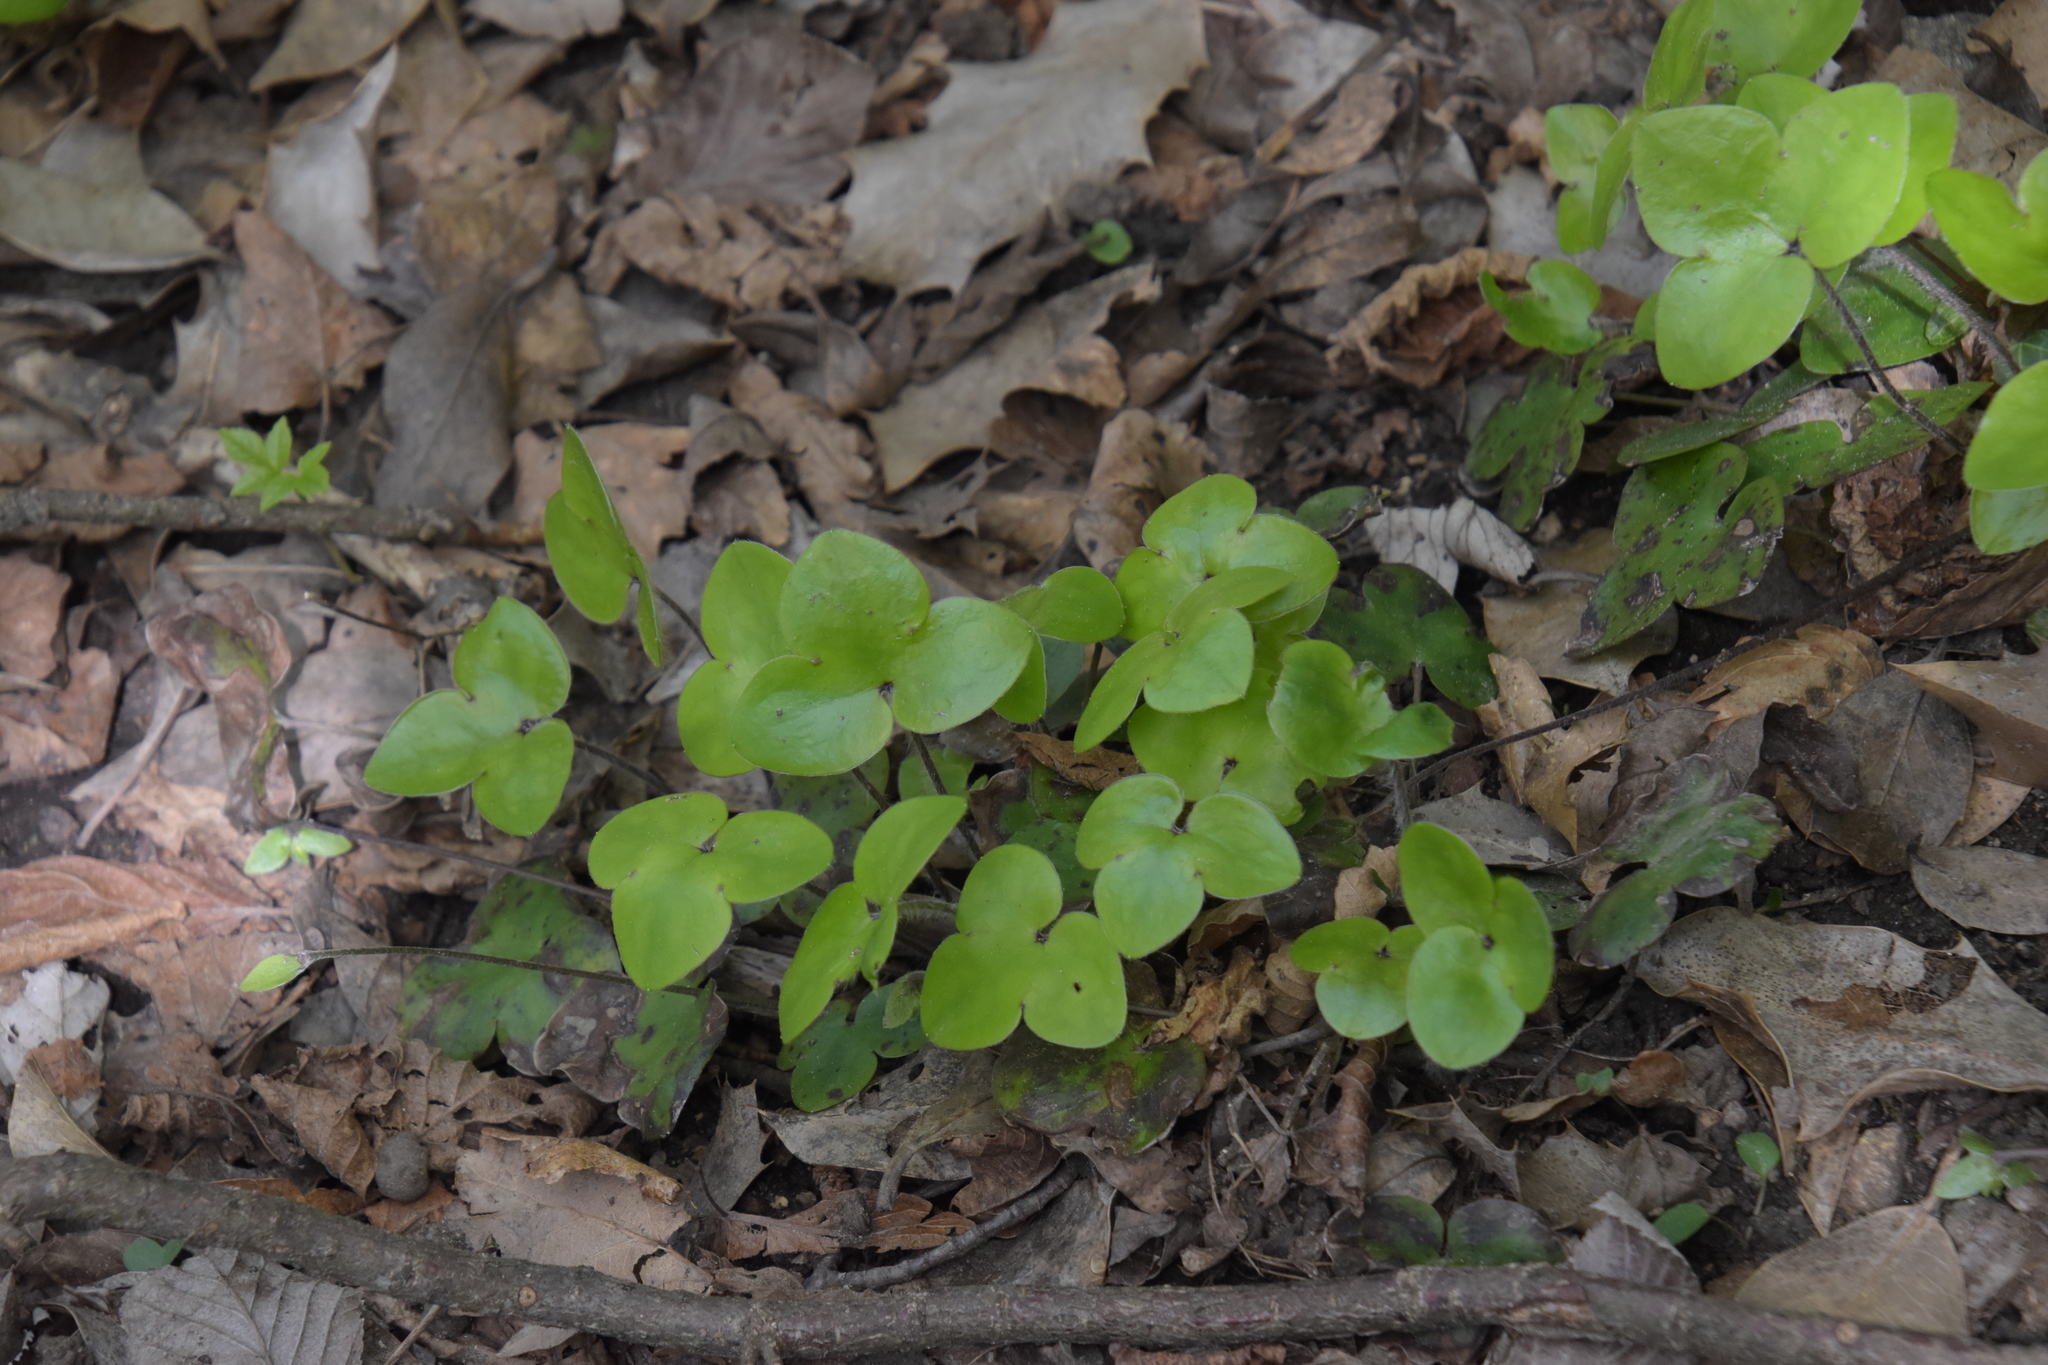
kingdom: Plantae
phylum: Tracheophyta
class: Magnoliopsida
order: Ranunculales
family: Ranunculaceae
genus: Hepatica
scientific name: Hepatica nobilis
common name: Liverleaf
